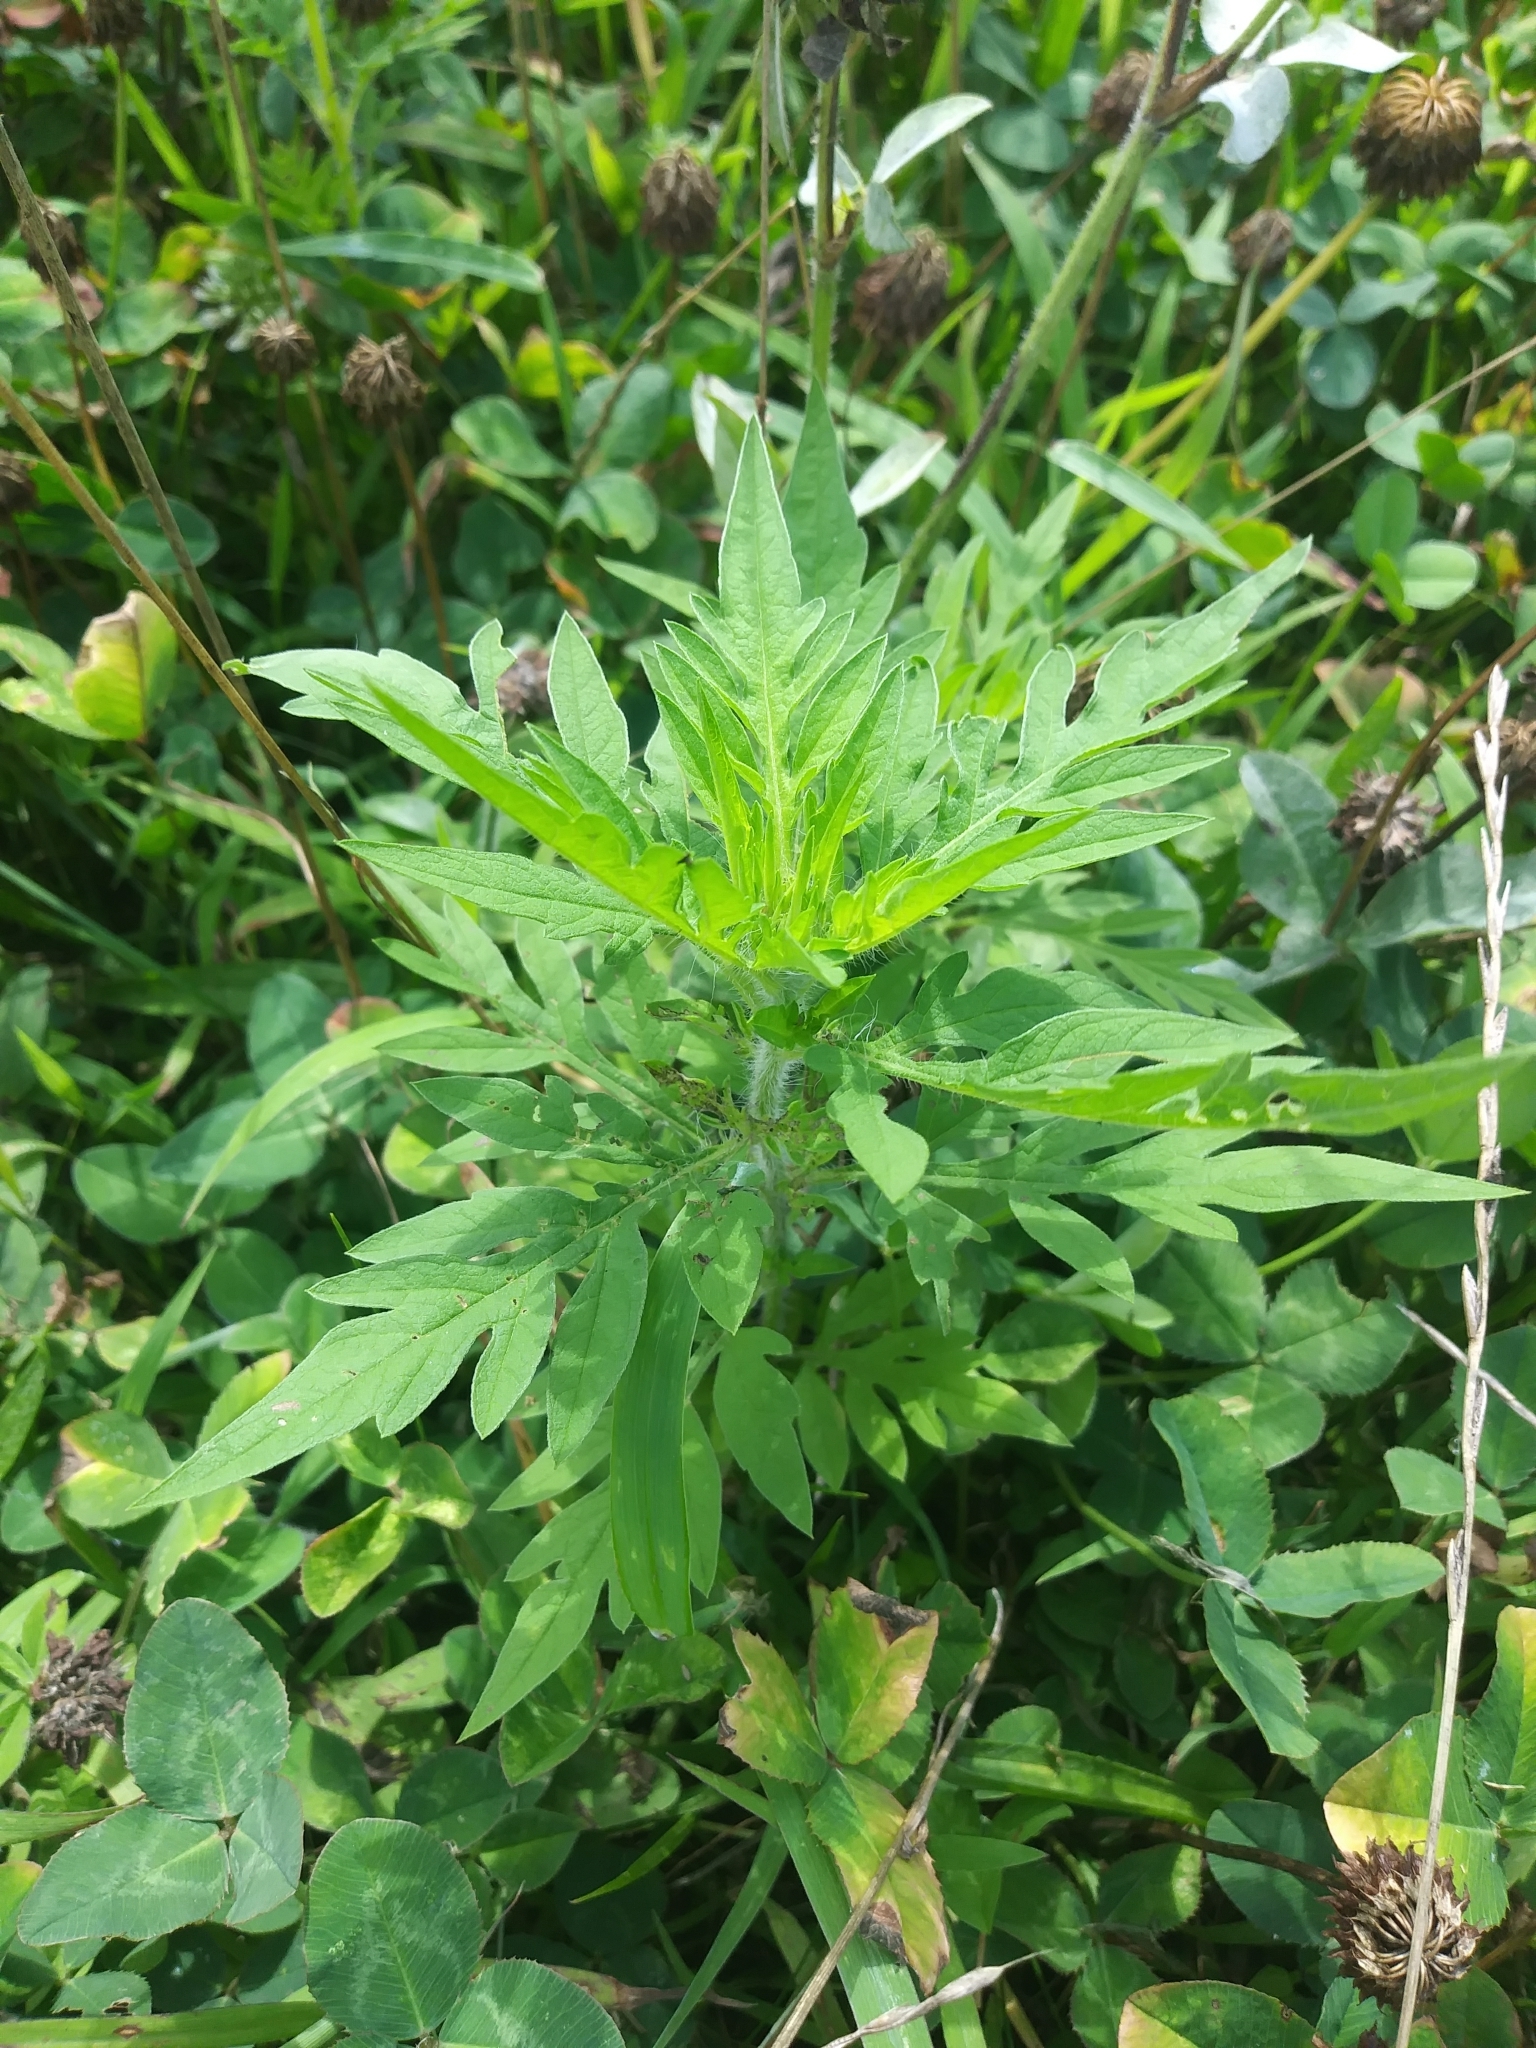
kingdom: Plantae
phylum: Tracheophyta
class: Magnoliopsida
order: Asterales
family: Asteraceae
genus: Ambrosia
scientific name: Ambrosia artemisiifolia
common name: Annual ragweed
